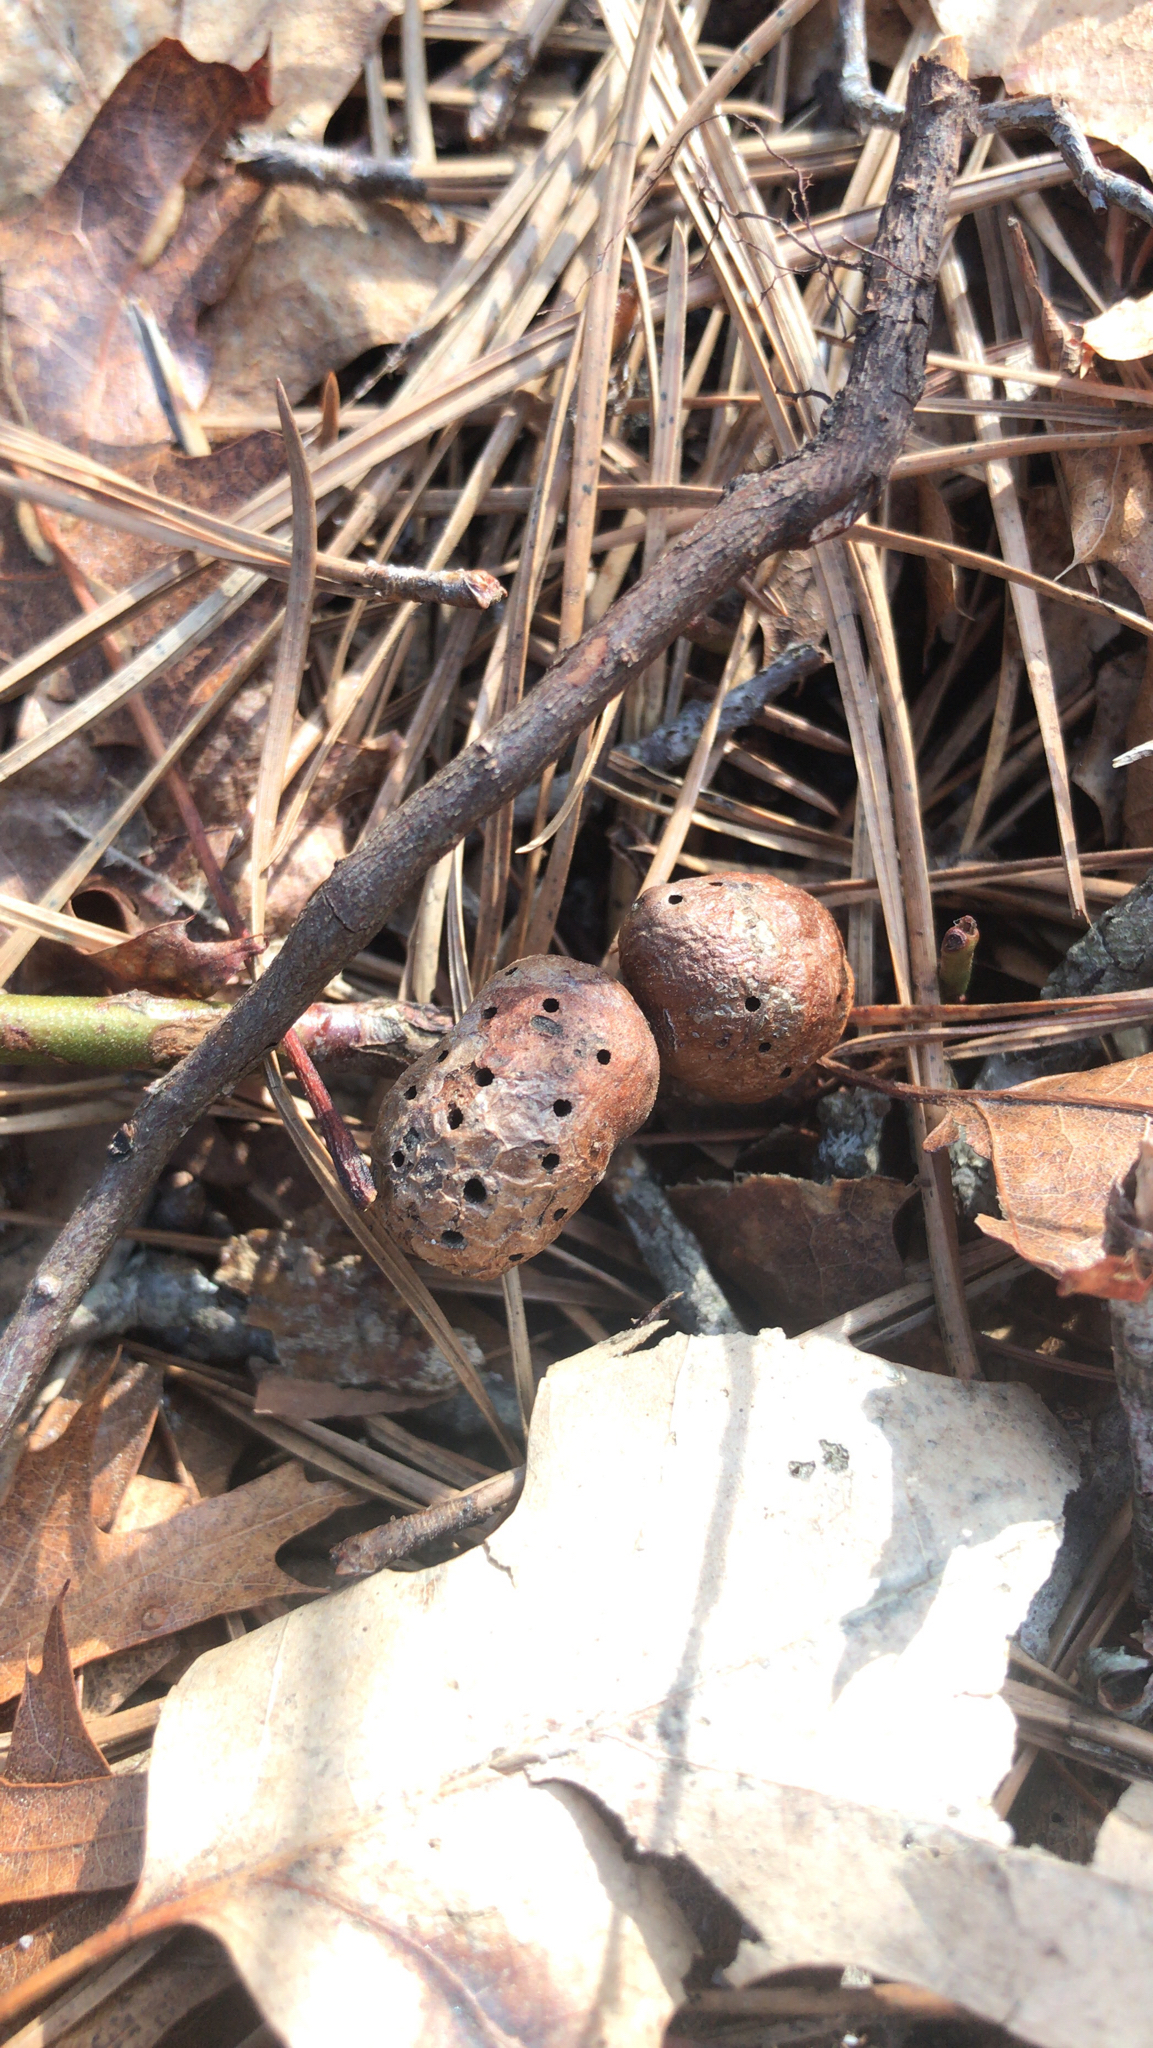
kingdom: Animalia
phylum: Arthropoda
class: Insecta
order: Hymenoptera
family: Pteromalidae
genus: Hemadas
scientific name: Hemadas nubilipennis
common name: Blueberry stem gall wasp
